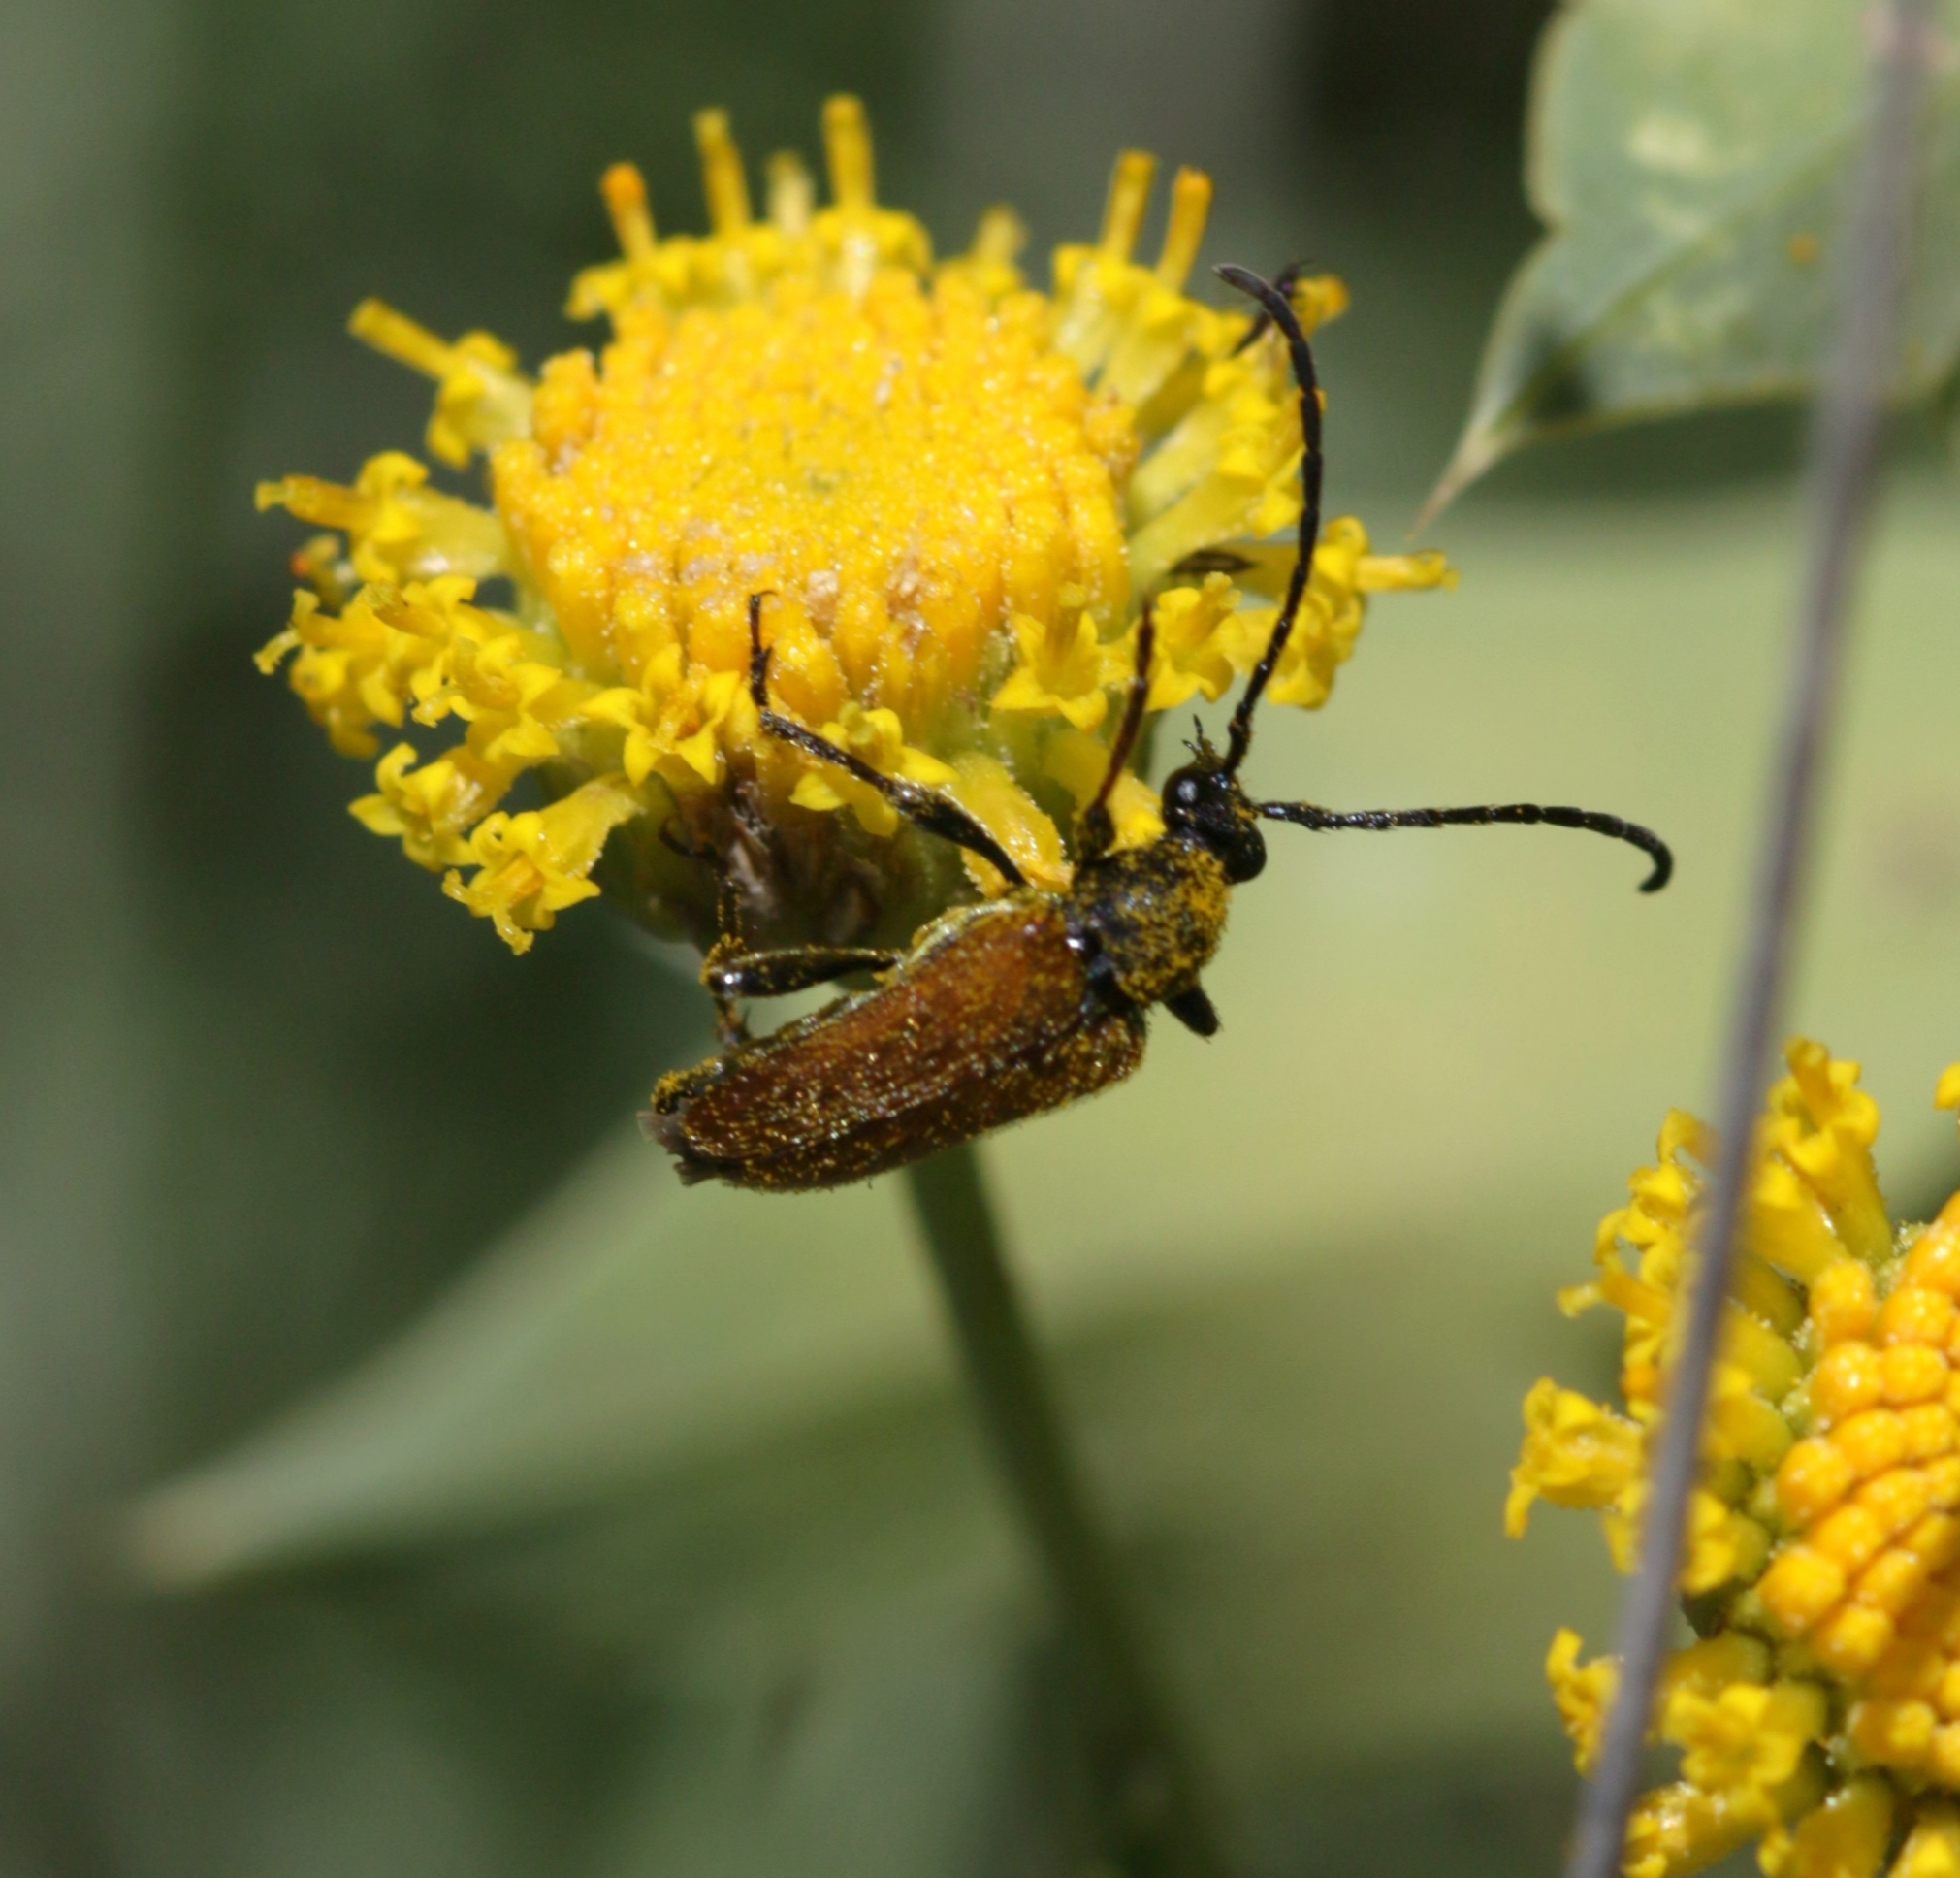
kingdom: Animalia
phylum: Arthropoda
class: Insecta
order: Coleoptera
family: Cerambycidae
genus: Pseudovadonia
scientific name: Pseudovadonia livida
